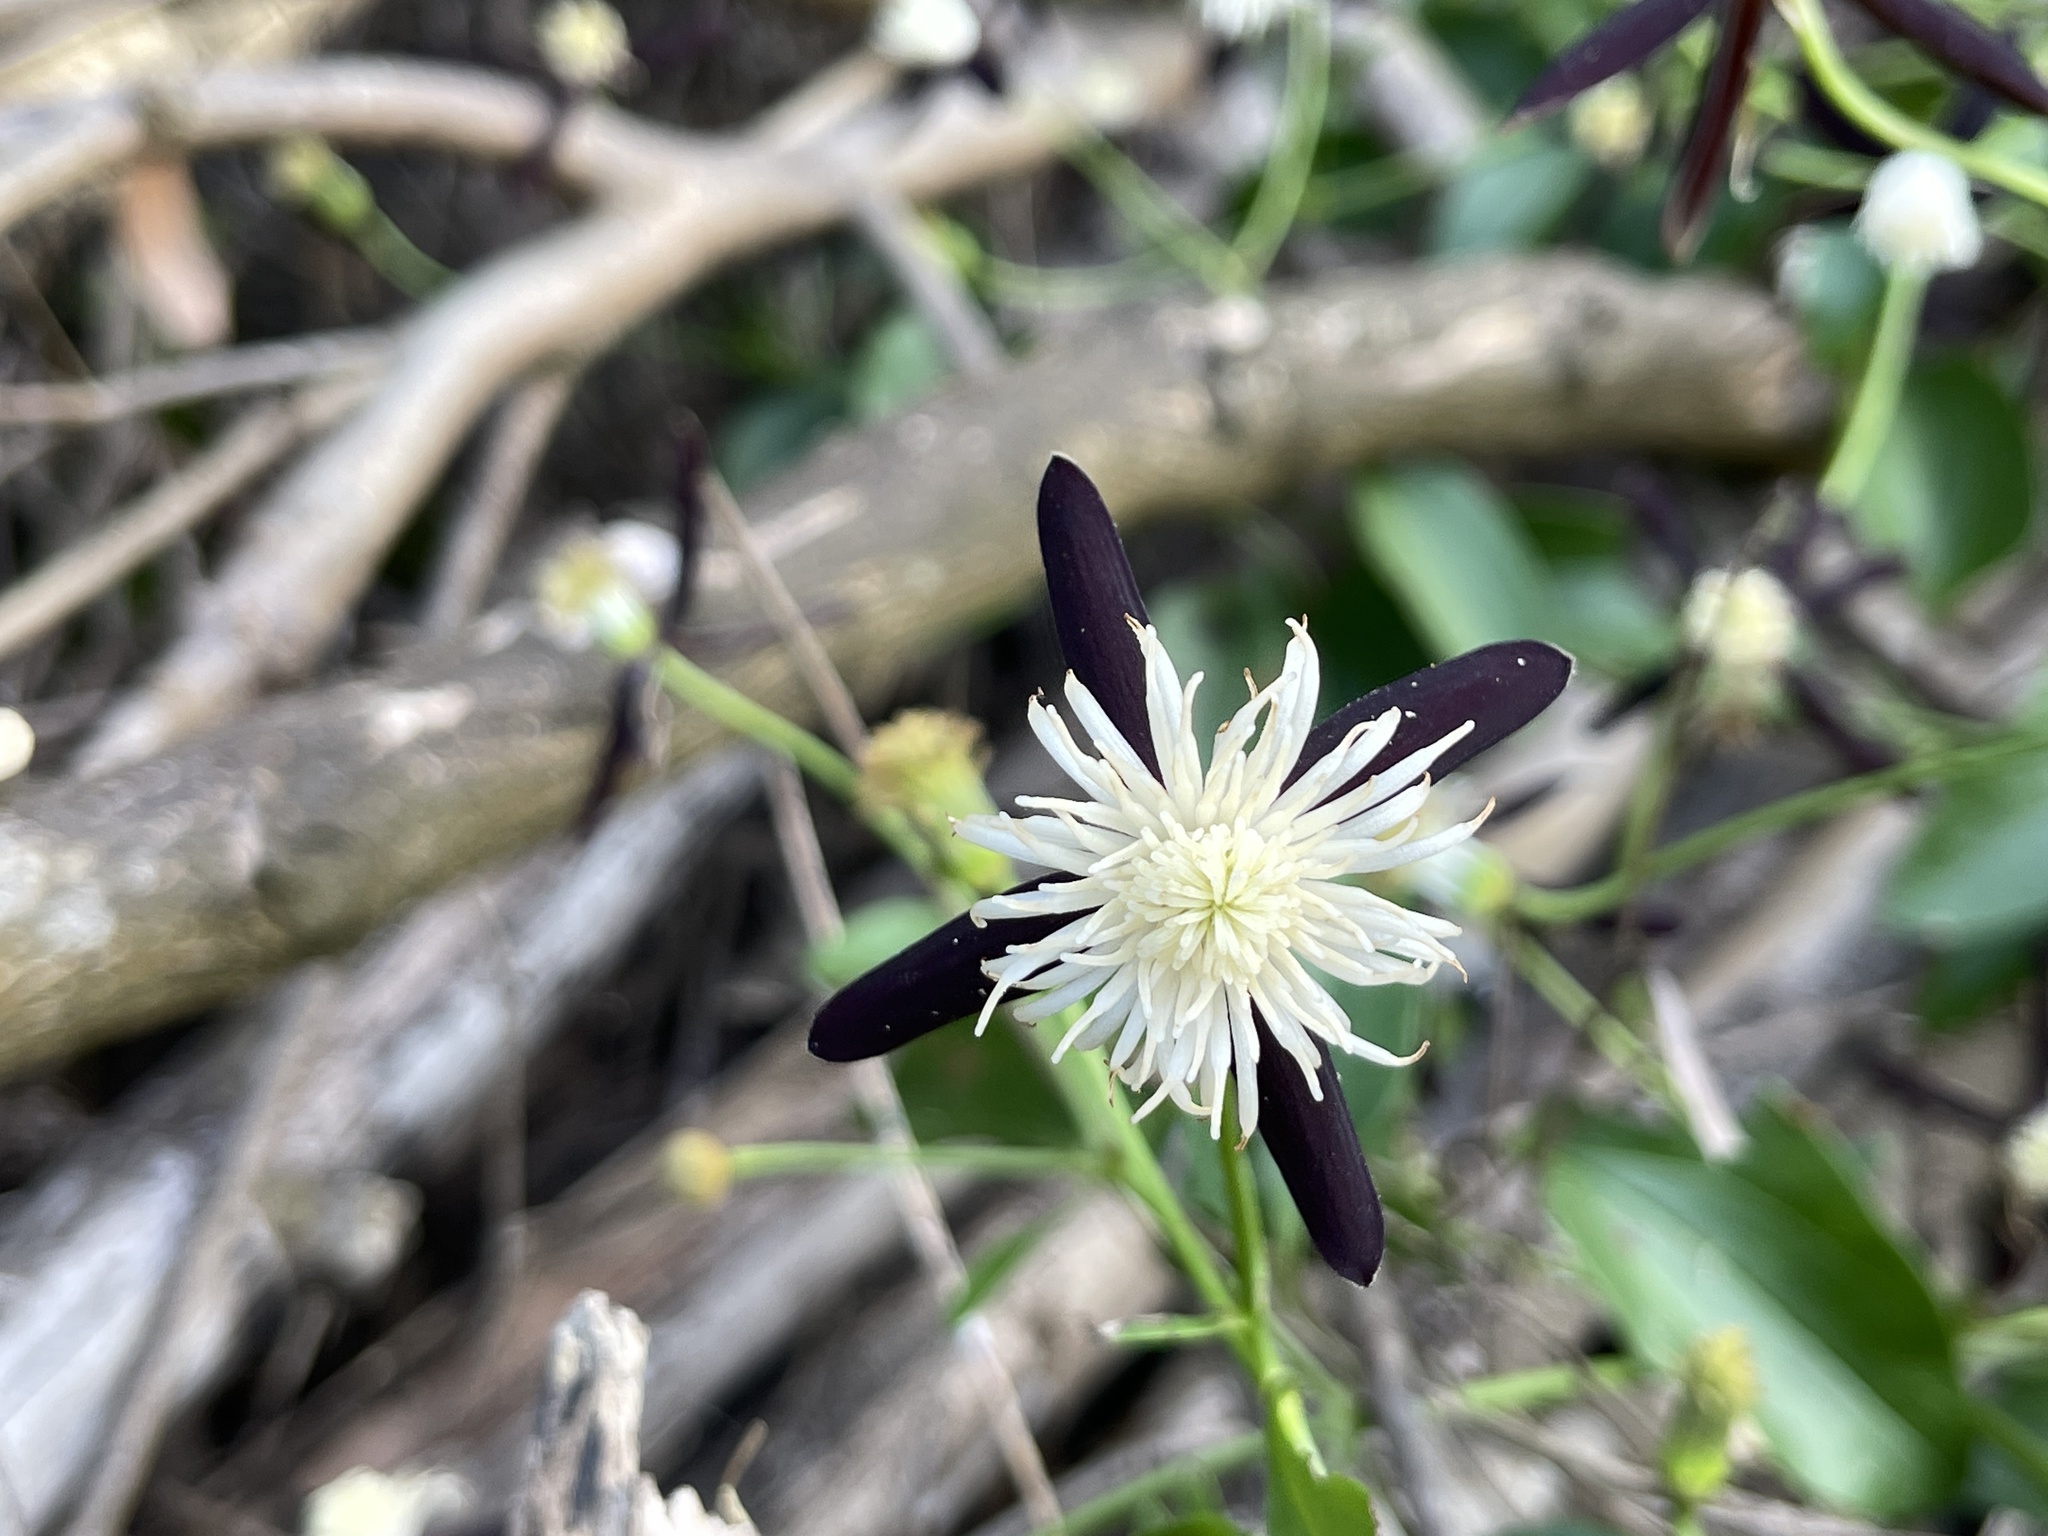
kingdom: Plantae
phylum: Tracheophyta
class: Magnoliopsida
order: Ranunculales
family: Ranunculaceae
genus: Clematis
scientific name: Clematis tashiroi
